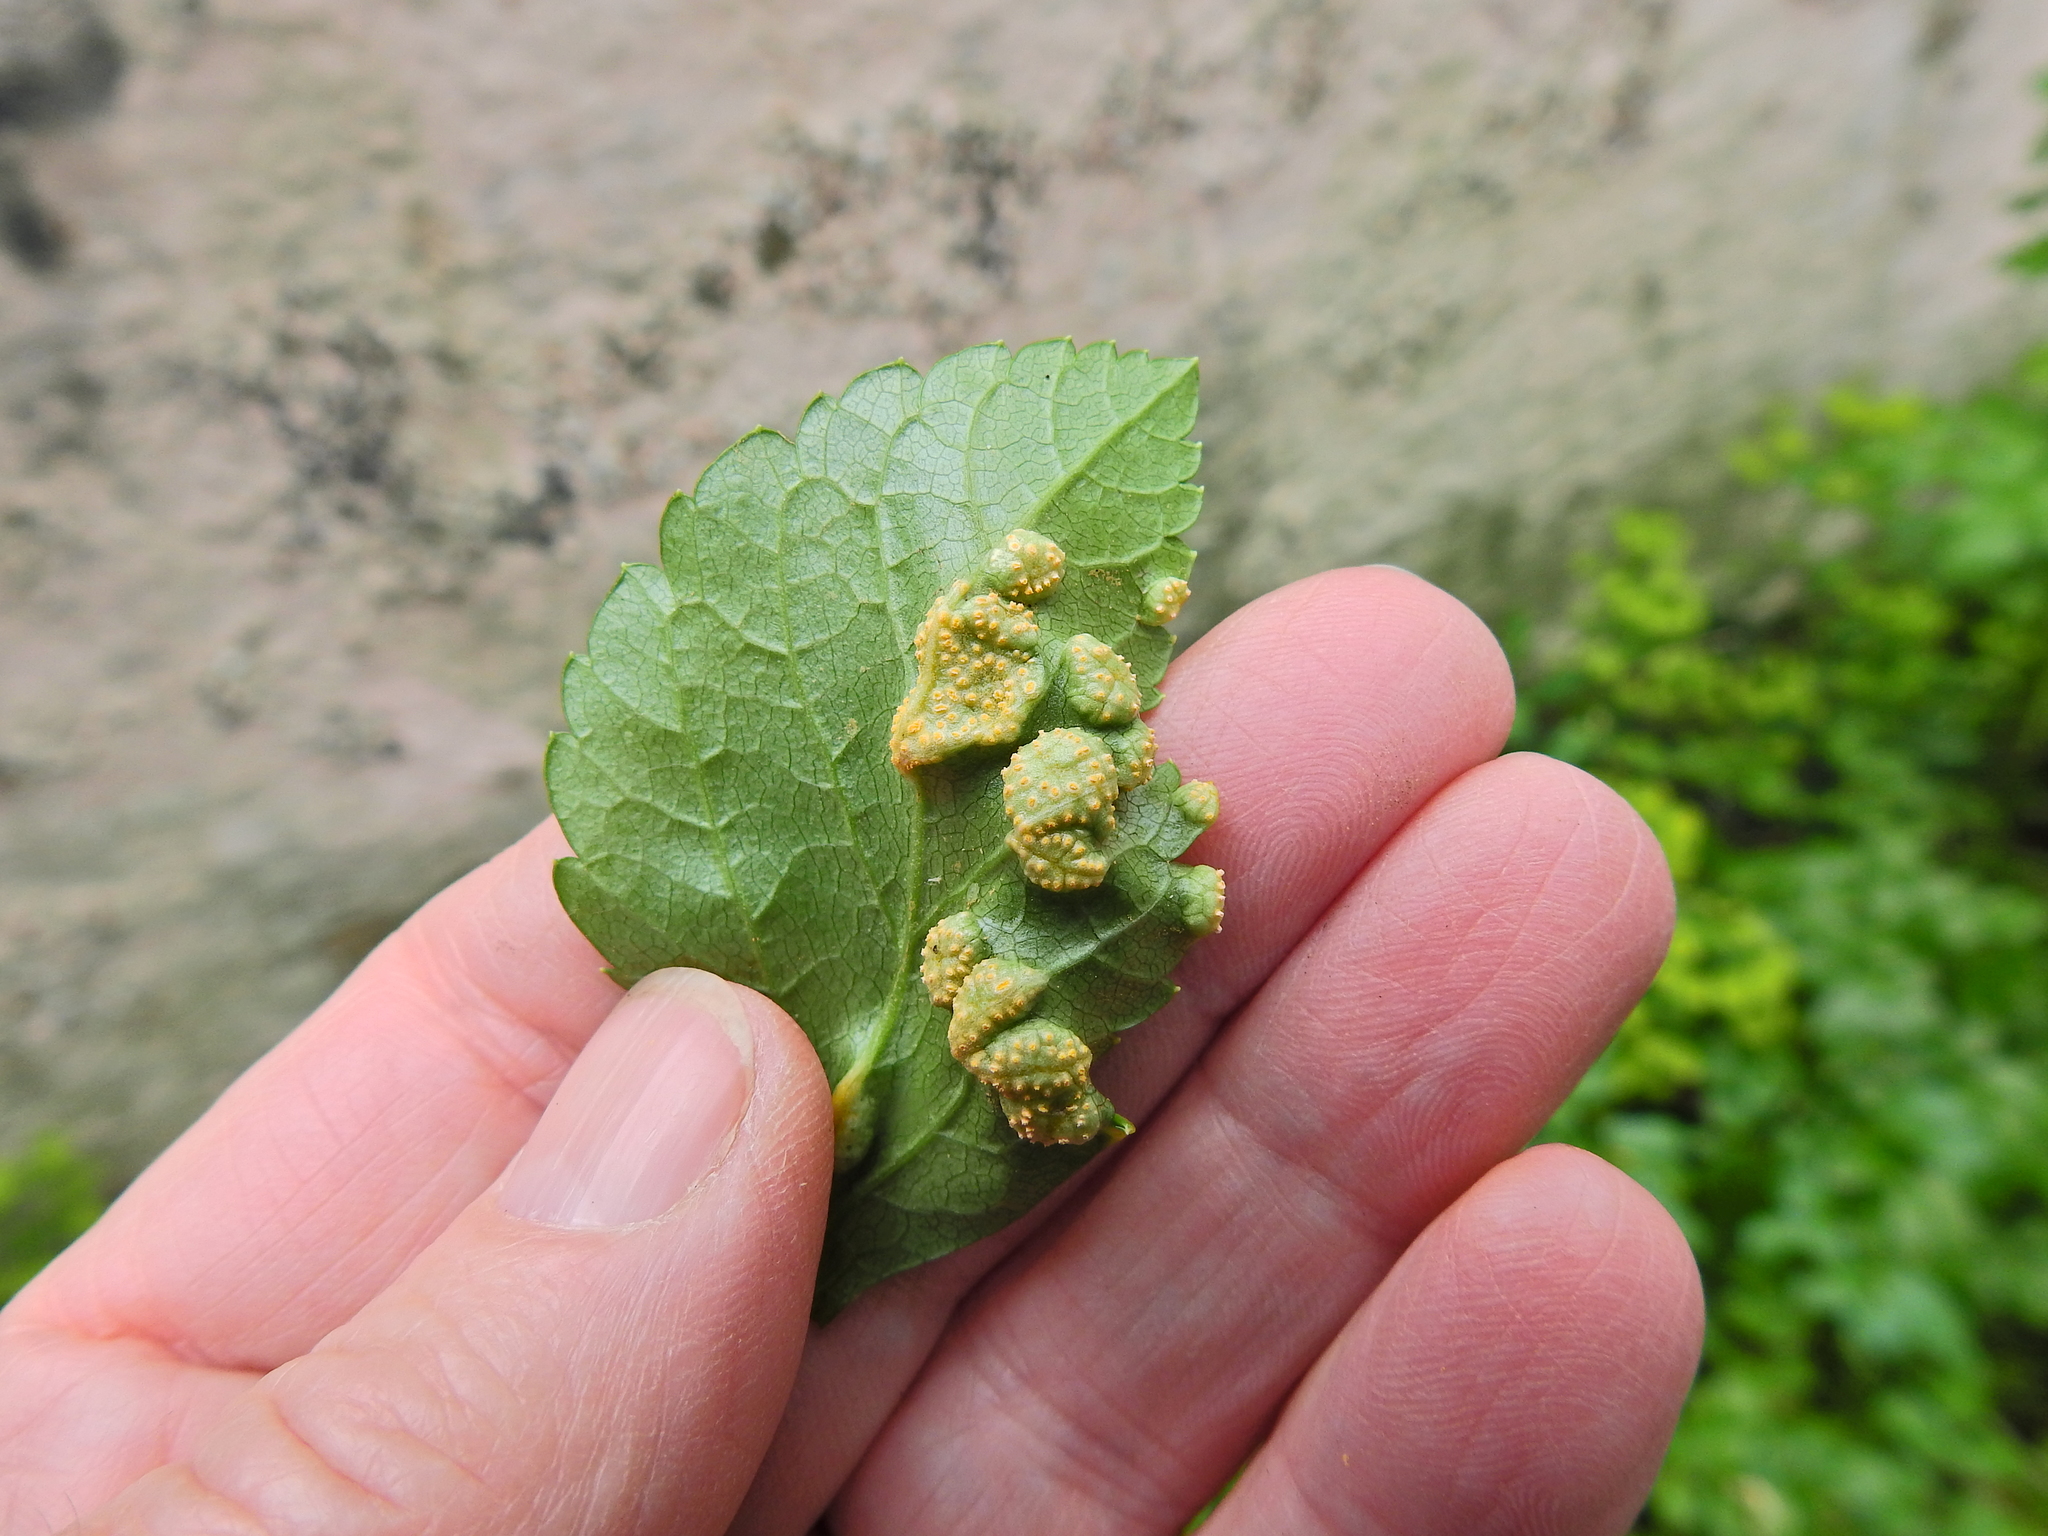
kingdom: Fungi
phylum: Basidiomycota
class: Pucciniomycetes
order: Pucciniales
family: Pucciniaceae
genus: Puccinia
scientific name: Puccinia smyrnii
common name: Alexanders rust
